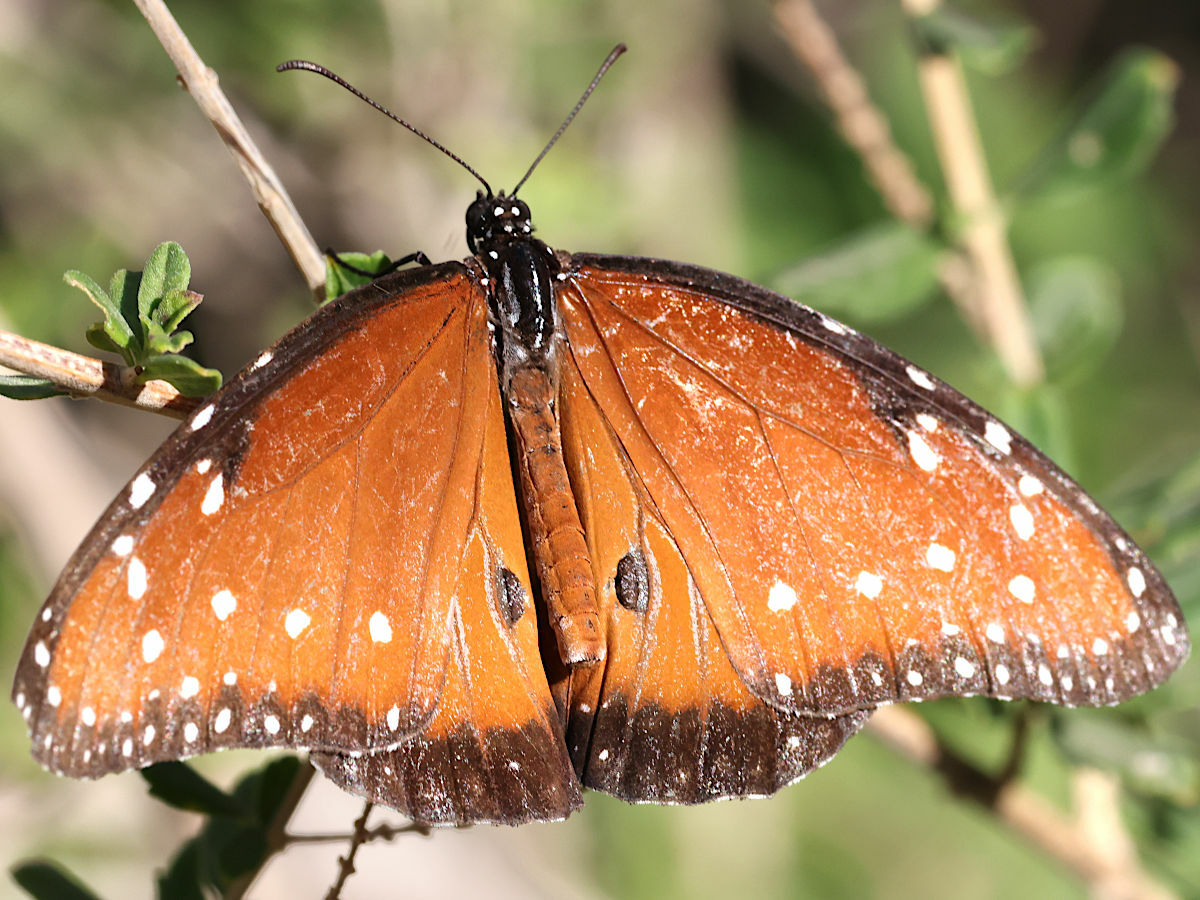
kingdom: Animalia
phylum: Arthropoda
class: Insecta
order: Lepidoptera
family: Nymphalidae
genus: Danaus
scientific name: Danaus gilippus
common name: Queen
